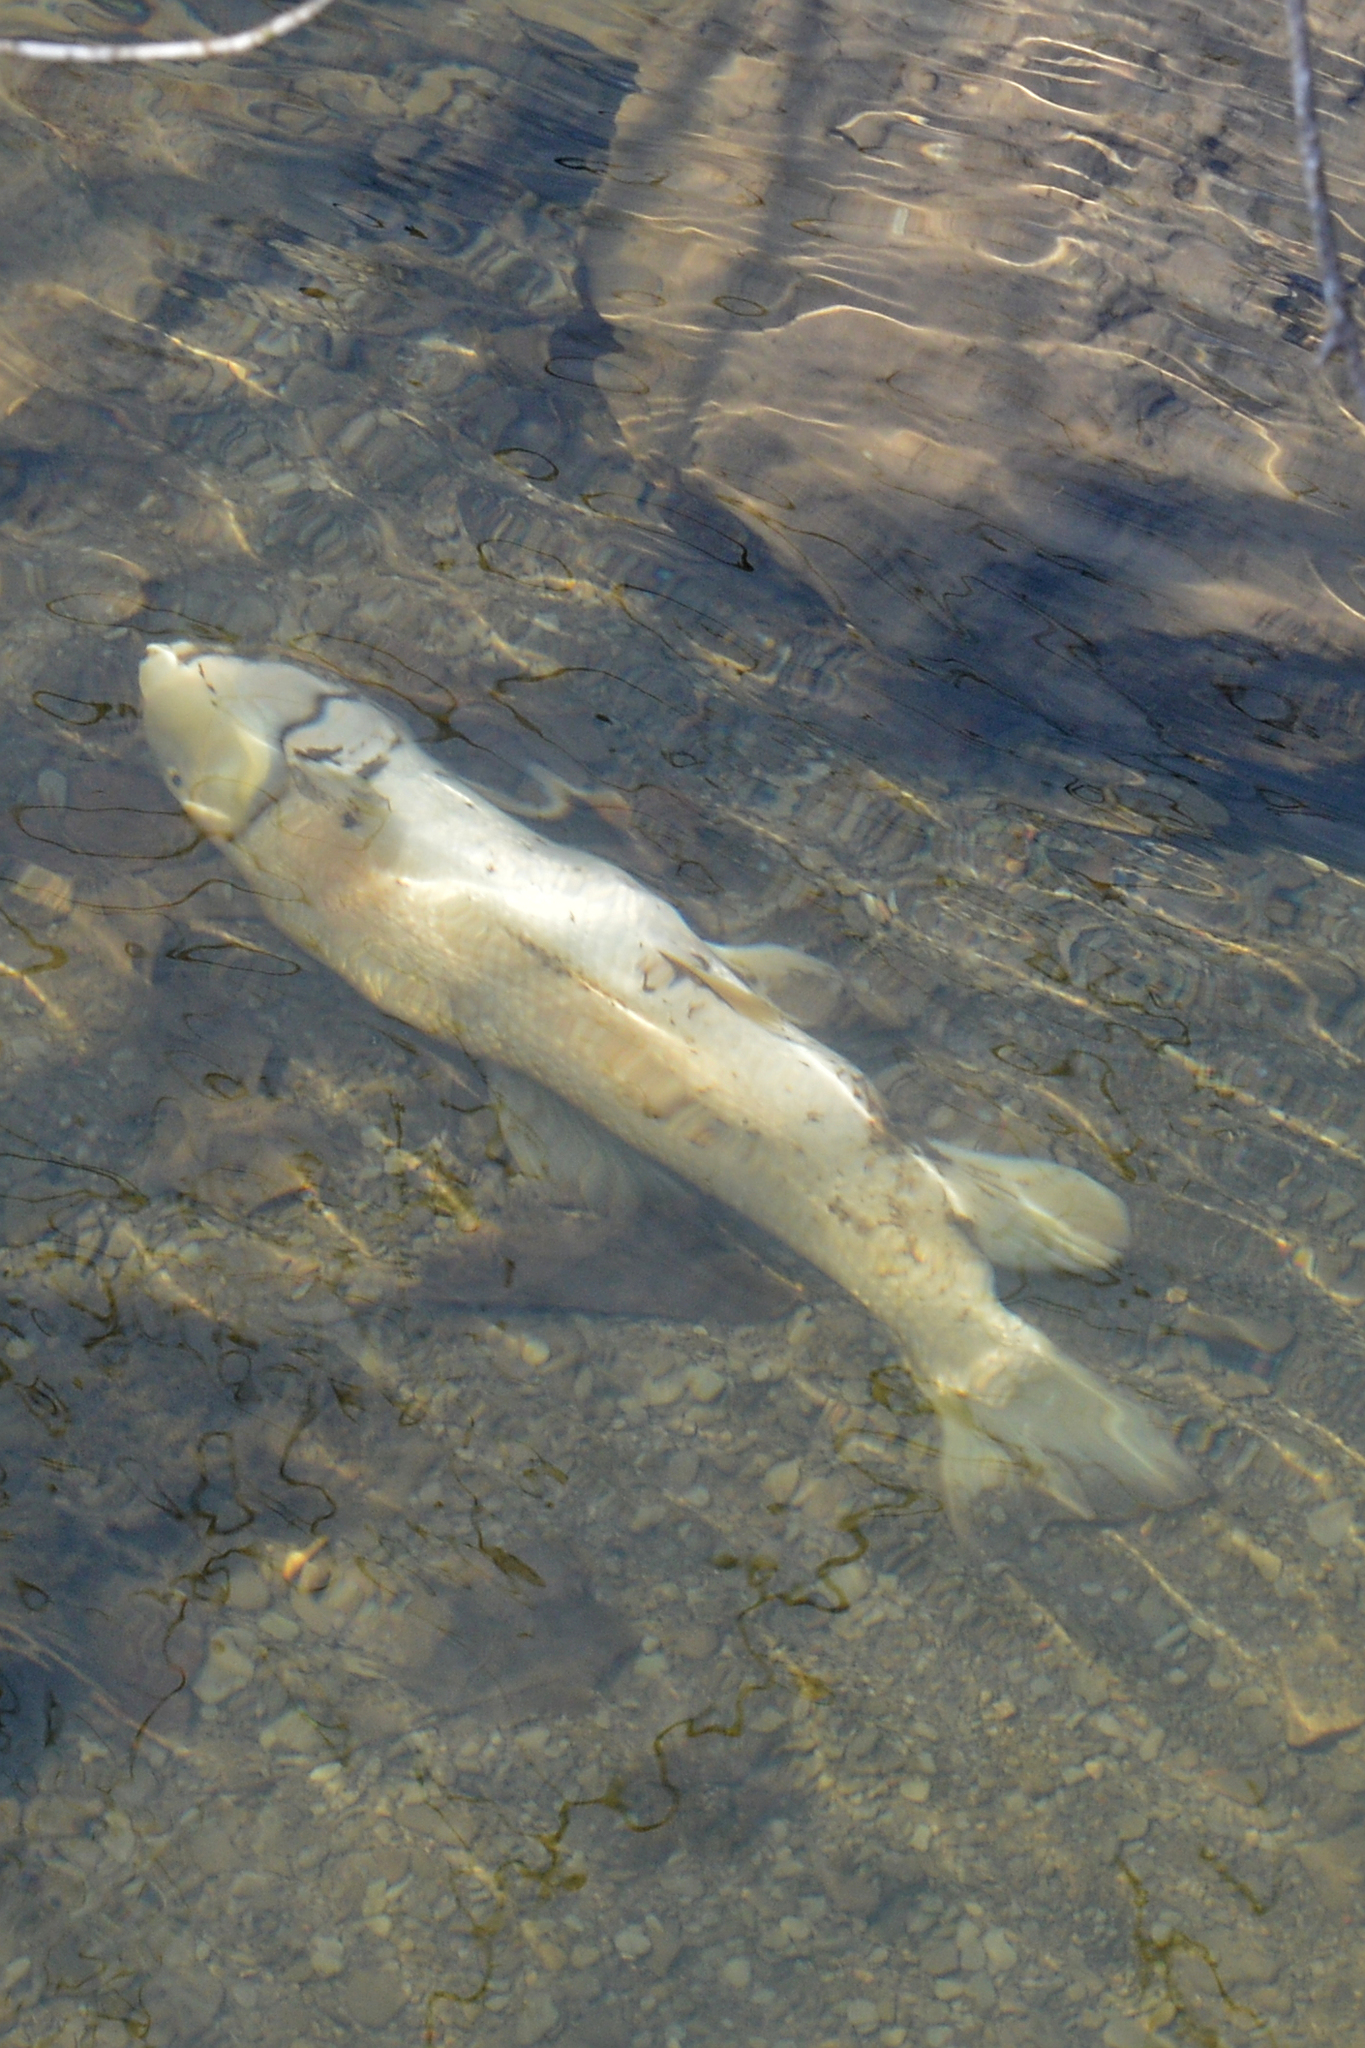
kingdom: Animalia
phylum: Chordata
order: Cypriniformes
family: Catostomidae
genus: Catostomus
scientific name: Catostomus commersonii
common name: White sucker
